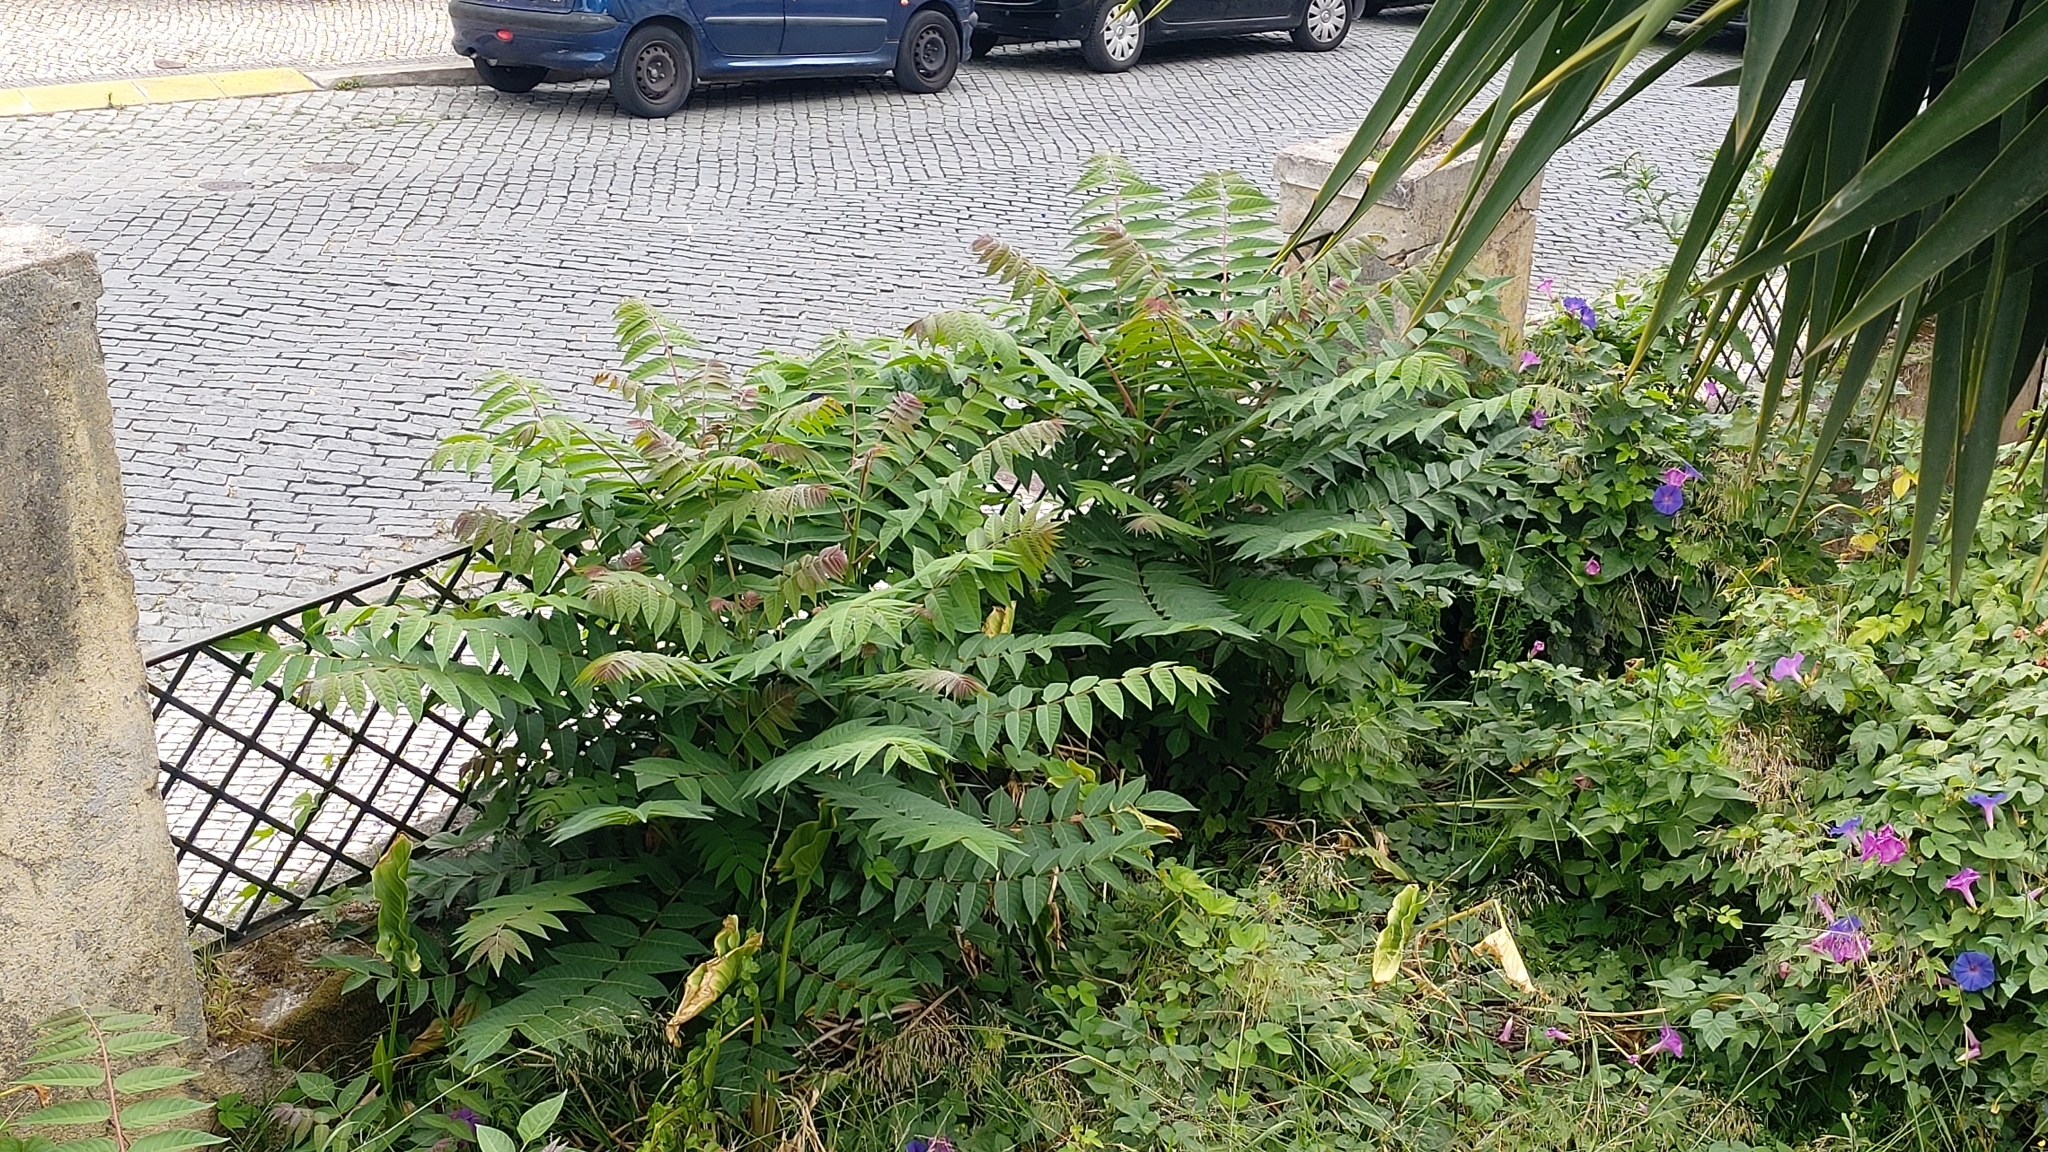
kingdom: Plantae
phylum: Tracheophyta
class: Magnoliopsida
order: Sapindales
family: Simaroubaceae
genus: Ailanthus
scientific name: Ailanthus altissima
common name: Tree-of-heaven
